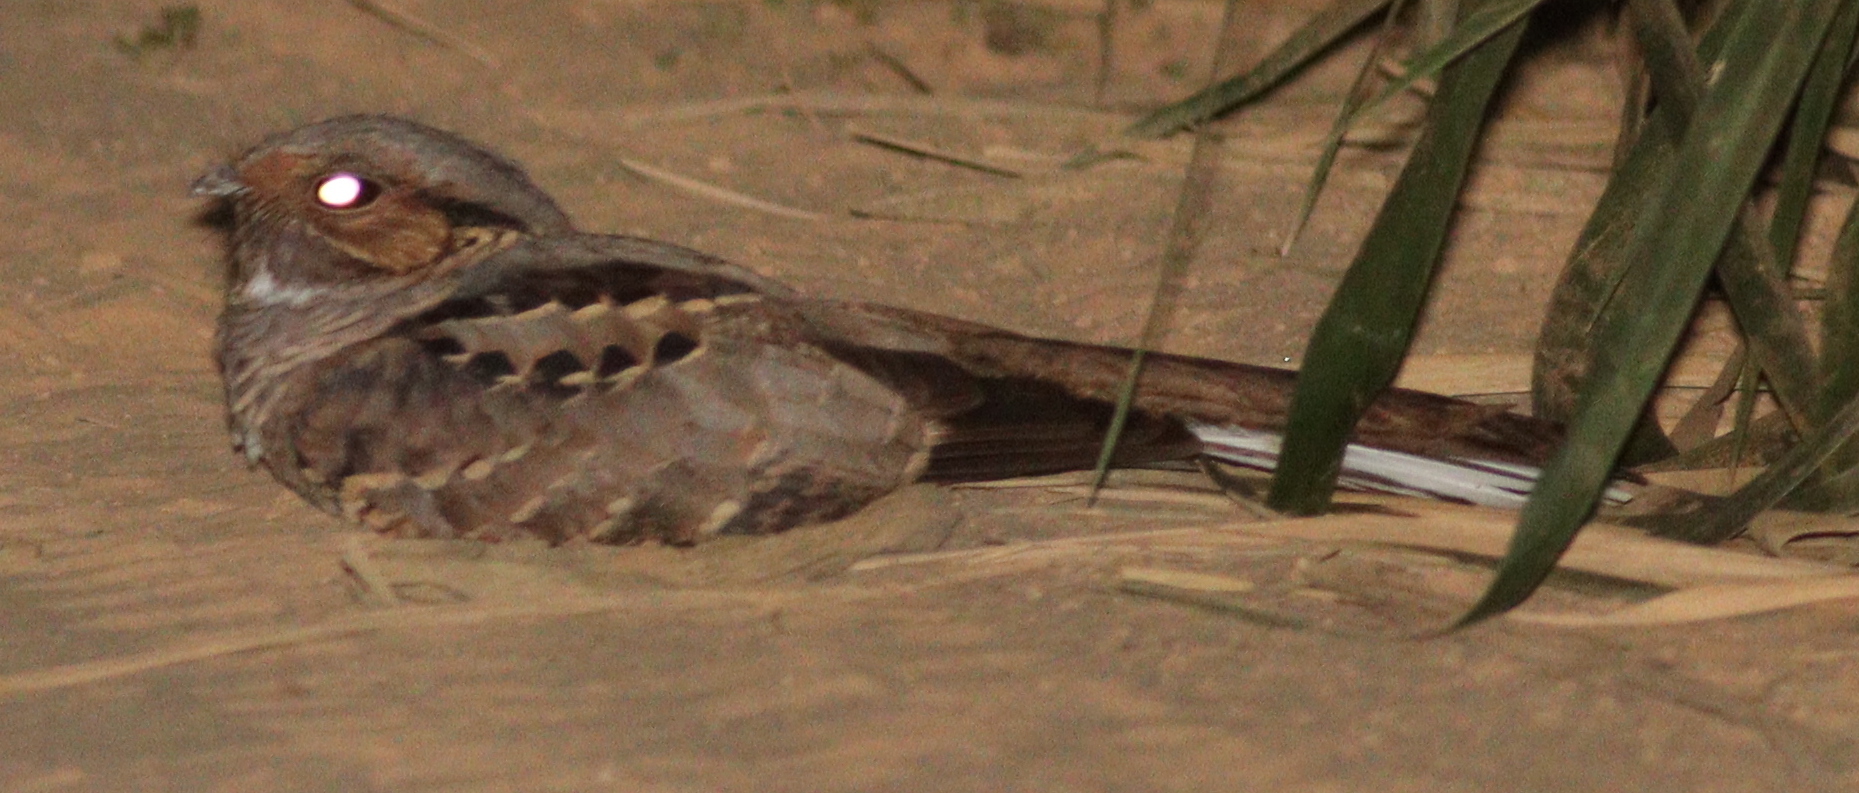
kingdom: Animalia
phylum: Chordata
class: Aves
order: Caprimulgiformes
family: Caprimulgidae
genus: Nyctidromus
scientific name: Nyctidromus albicollis
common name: Pauraque
